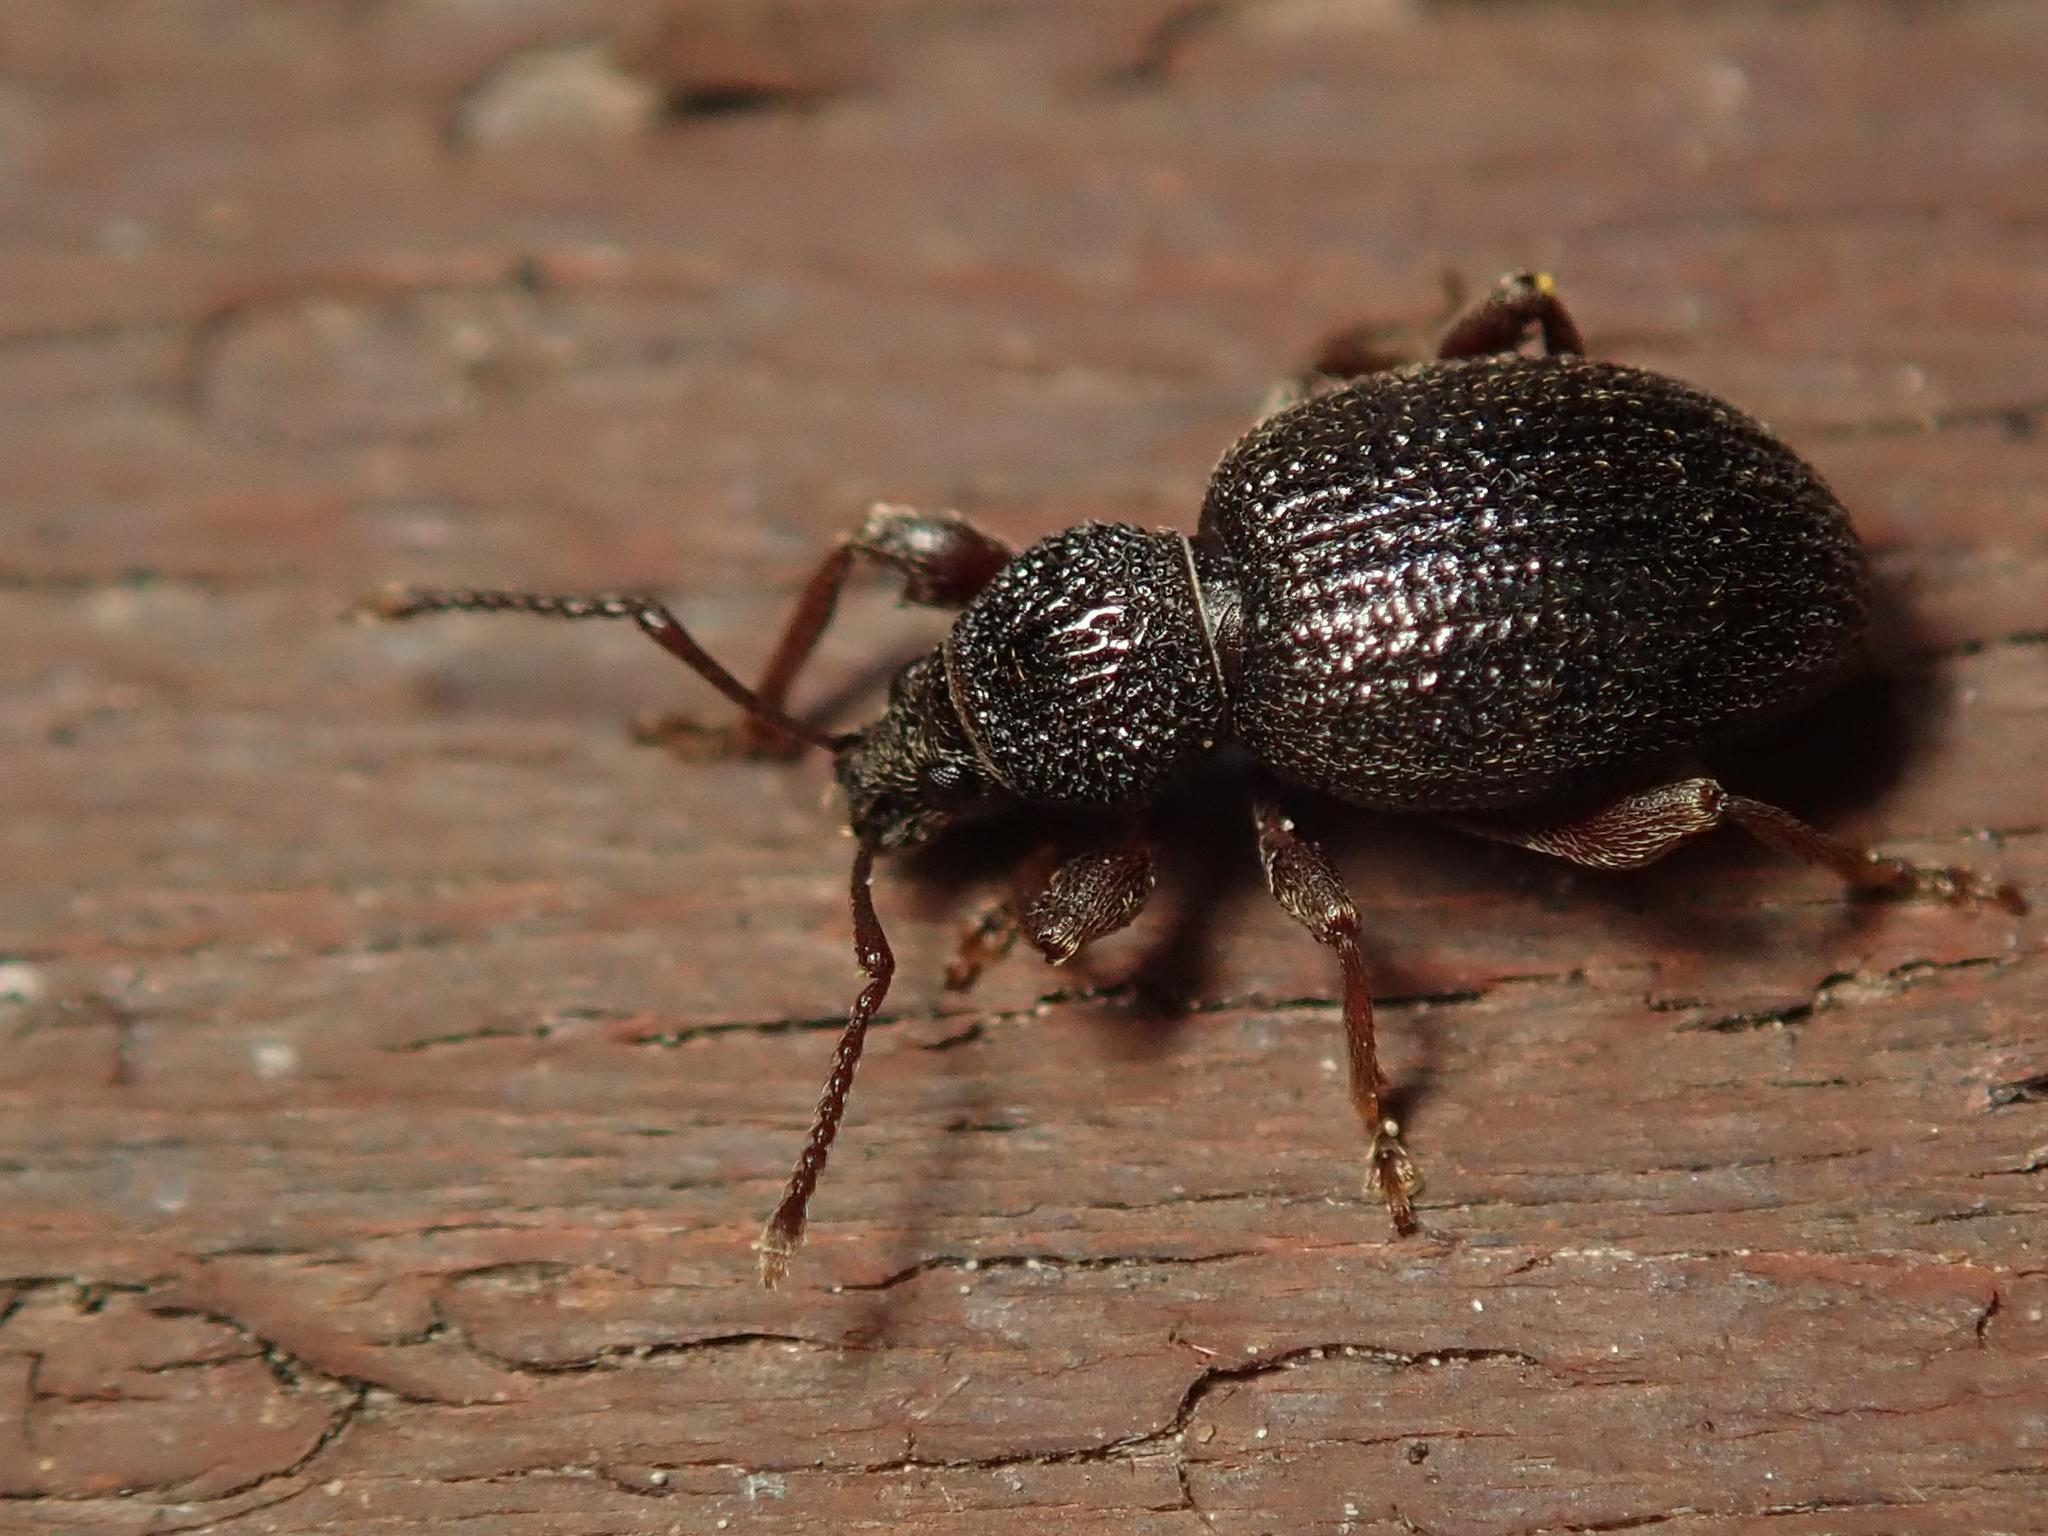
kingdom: Animalia
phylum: Arthropoda
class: Insecta
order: Coleoptera
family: Curculionidae
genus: Otiorhynchus
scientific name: Otiorhynchus ovatus
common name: Strawberry root weevil
